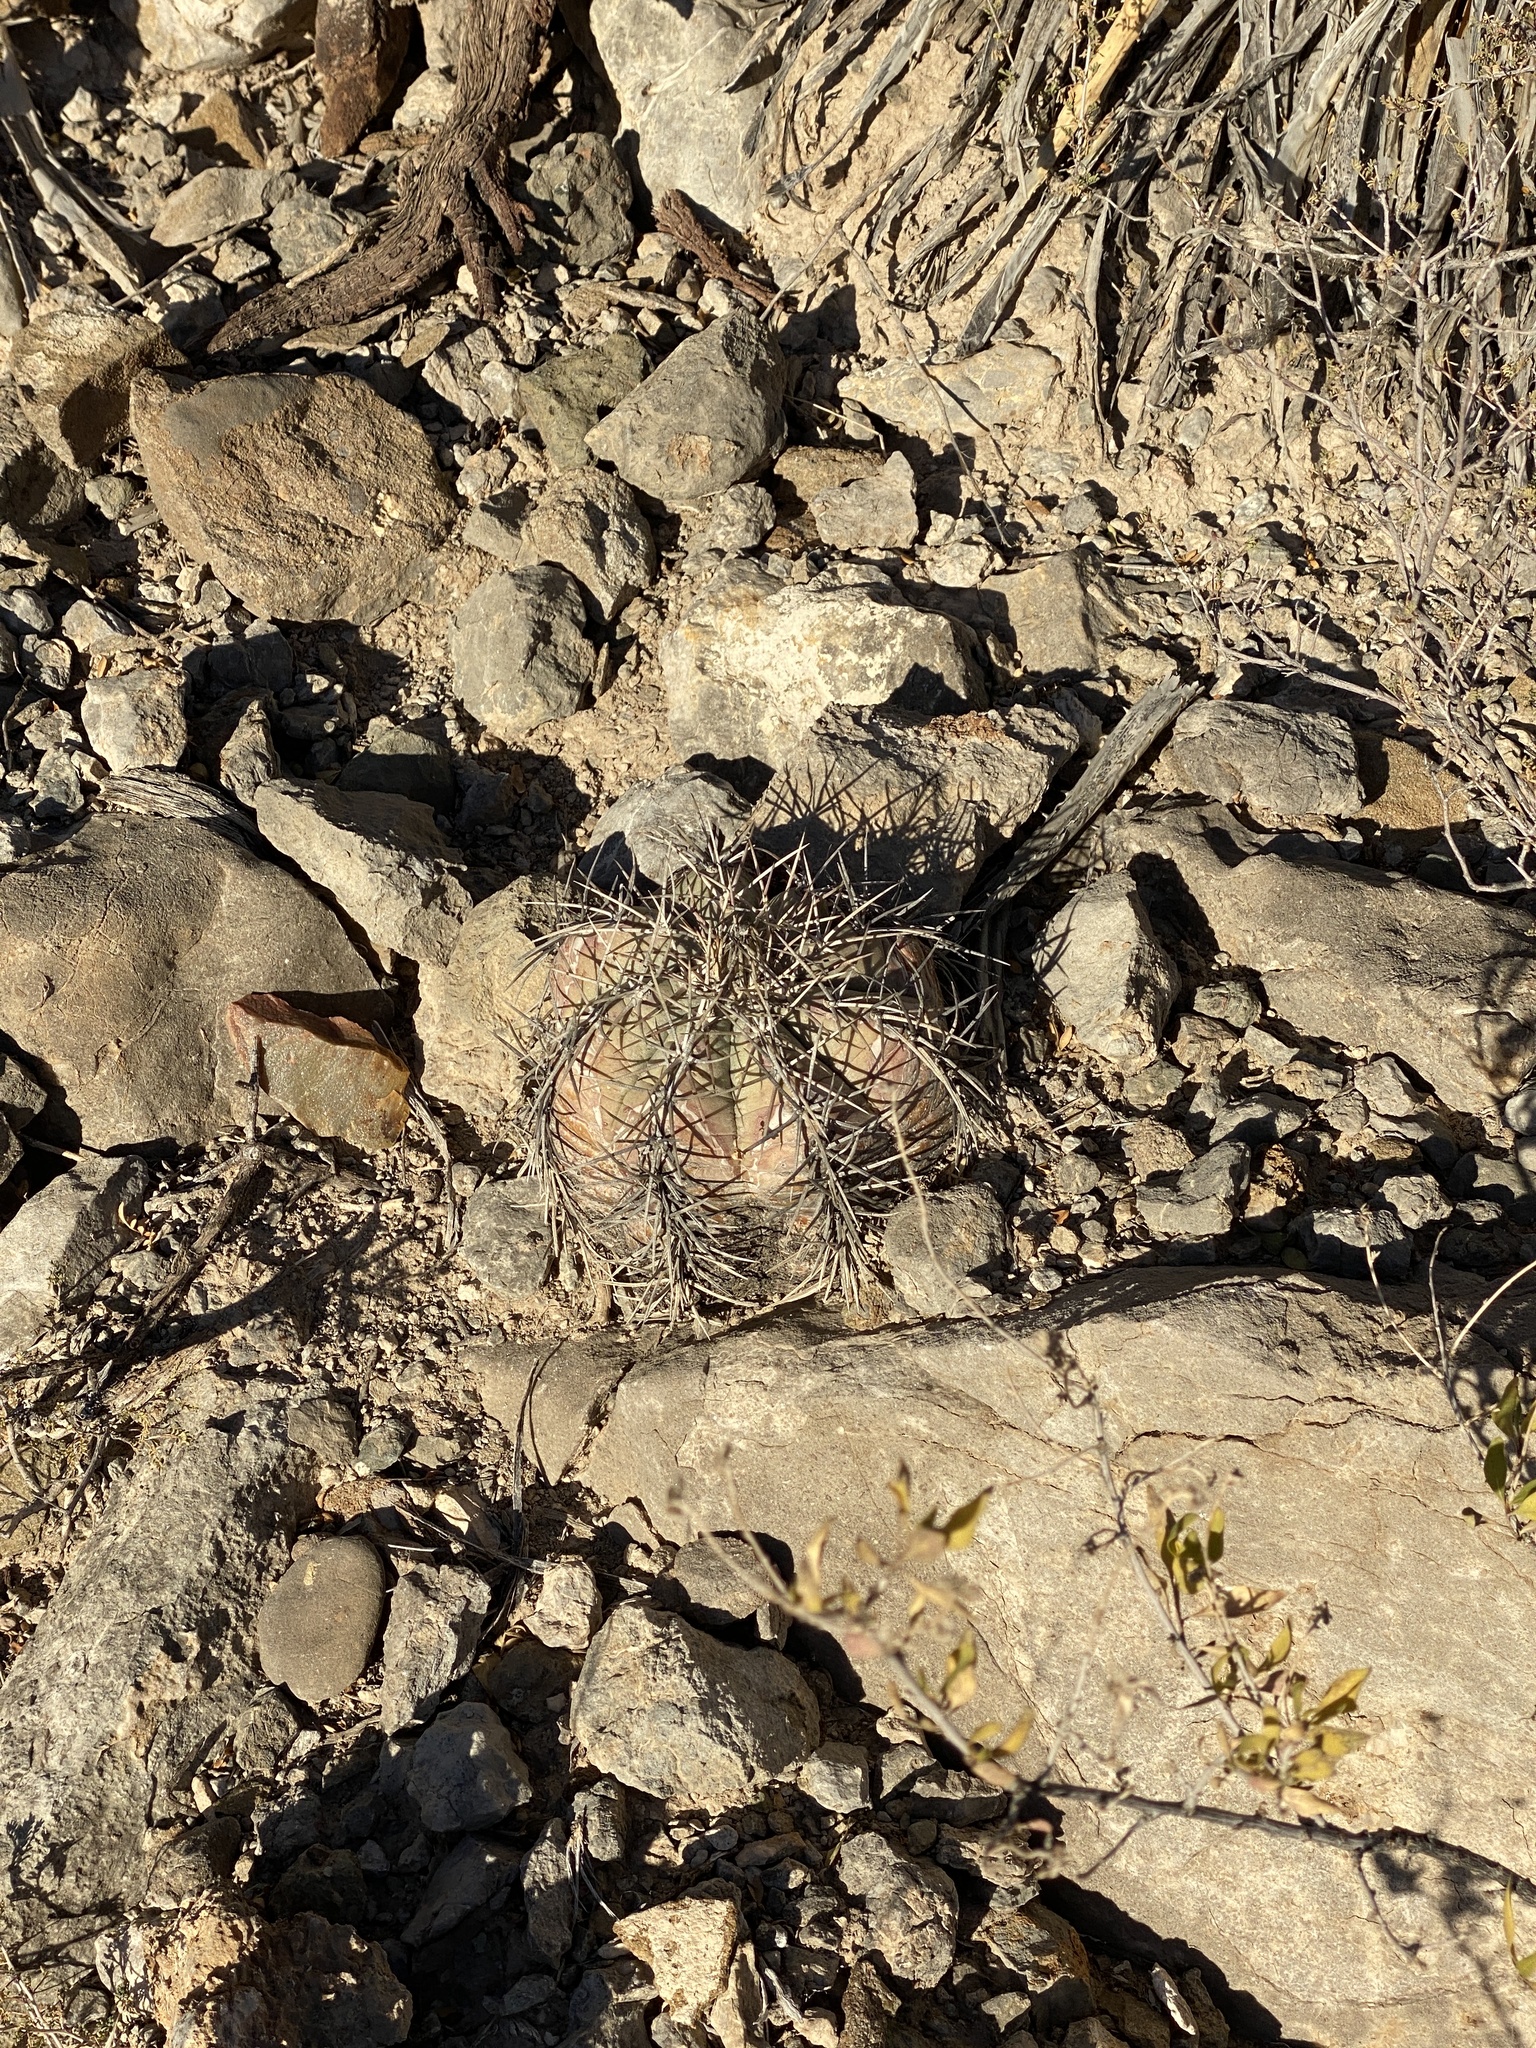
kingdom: Plantae
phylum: Tracheophyta
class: Magnoliopsida
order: Caryophyllales
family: Cactaceae
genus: Echinocactus
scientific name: Echinocactus horizonthalonius
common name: Devilshead
